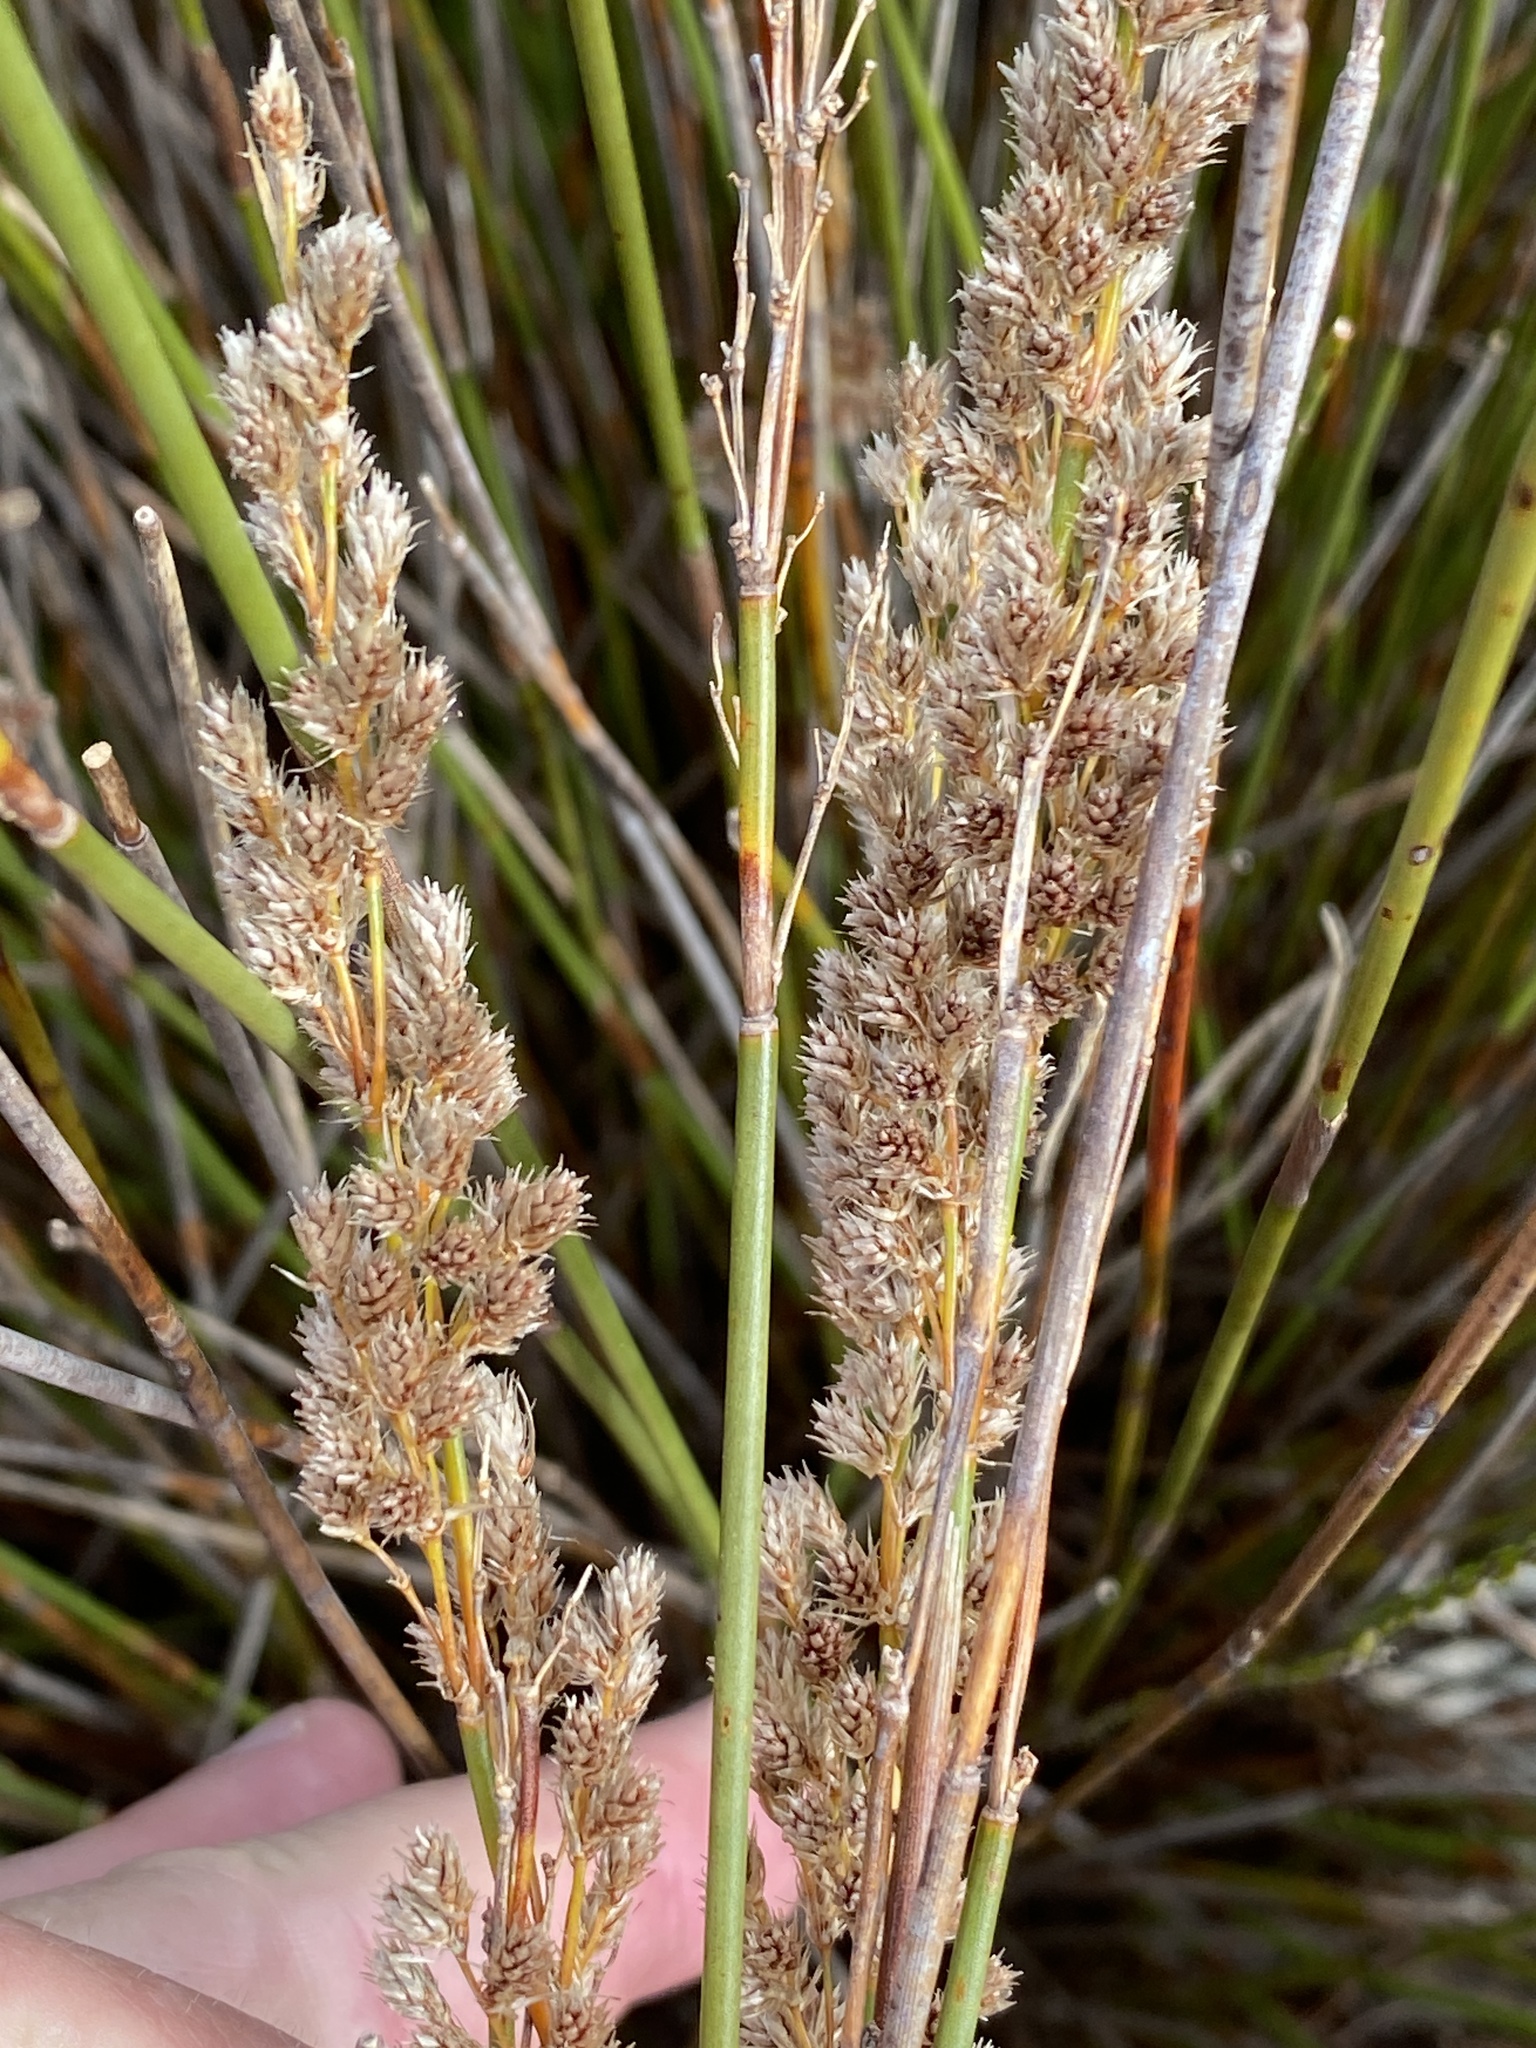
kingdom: Plantae
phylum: Tracheophyta
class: Liliopsida
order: Poales
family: Restionaceae
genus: Hypodiscus
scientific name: Hypodiscus argenteus
